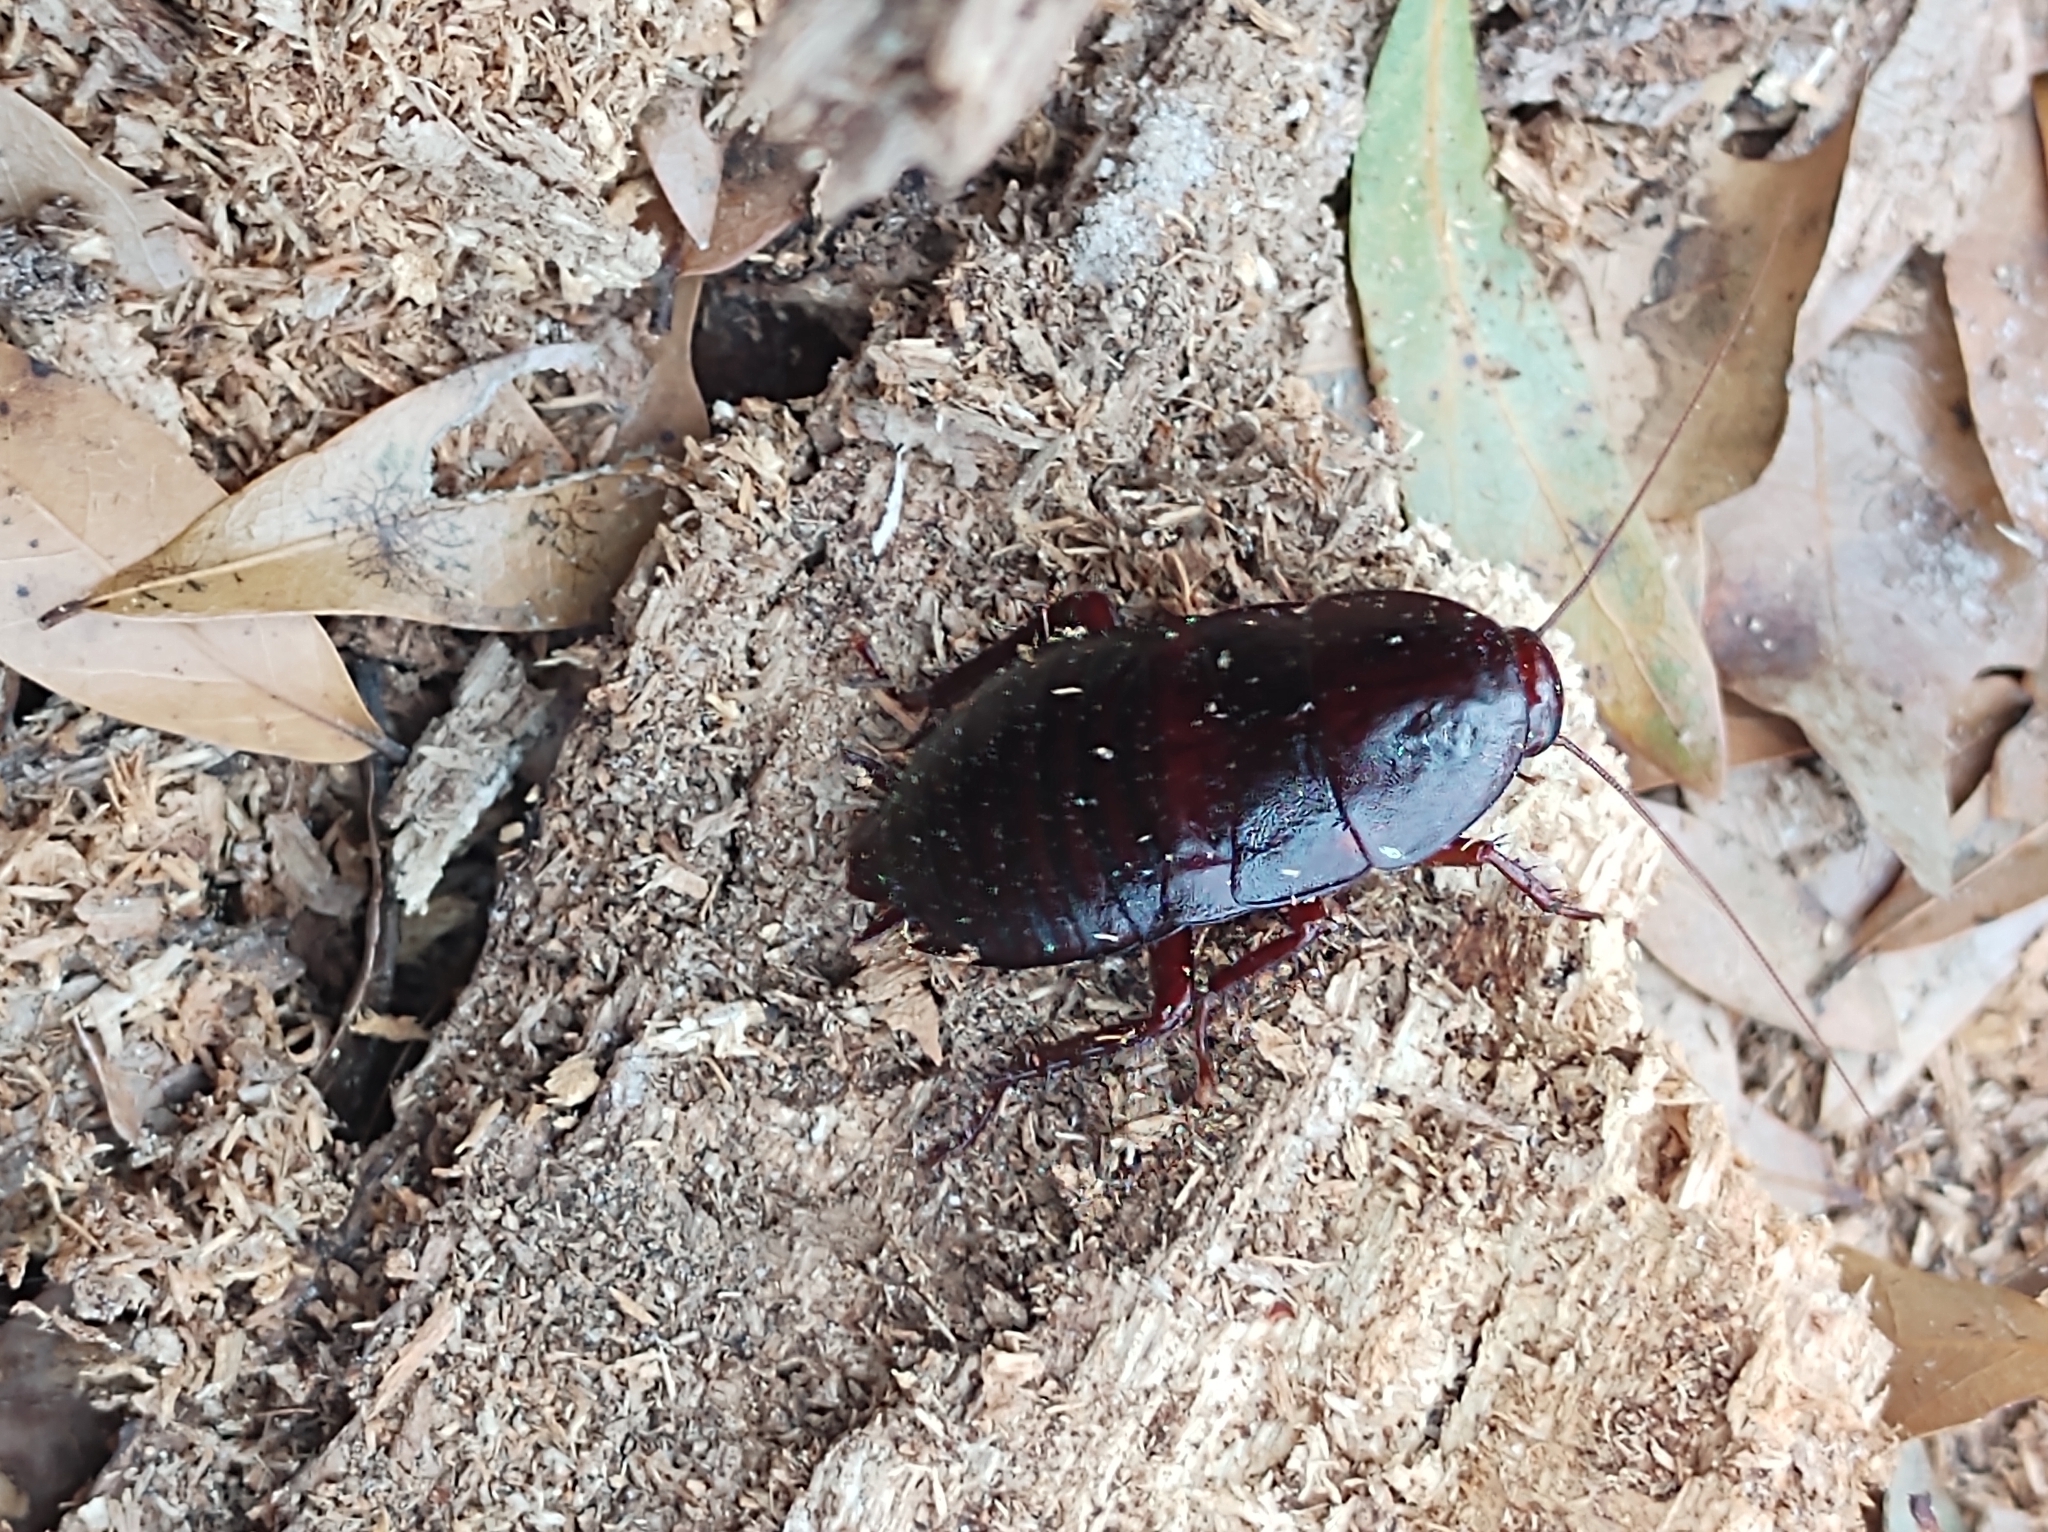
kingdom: Animalia
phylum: Arthropoda
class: Insecta
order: Blattodea
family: Blattidae
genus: Eurycotis
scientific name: Eurycotis floridana
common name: Florida cockroach
